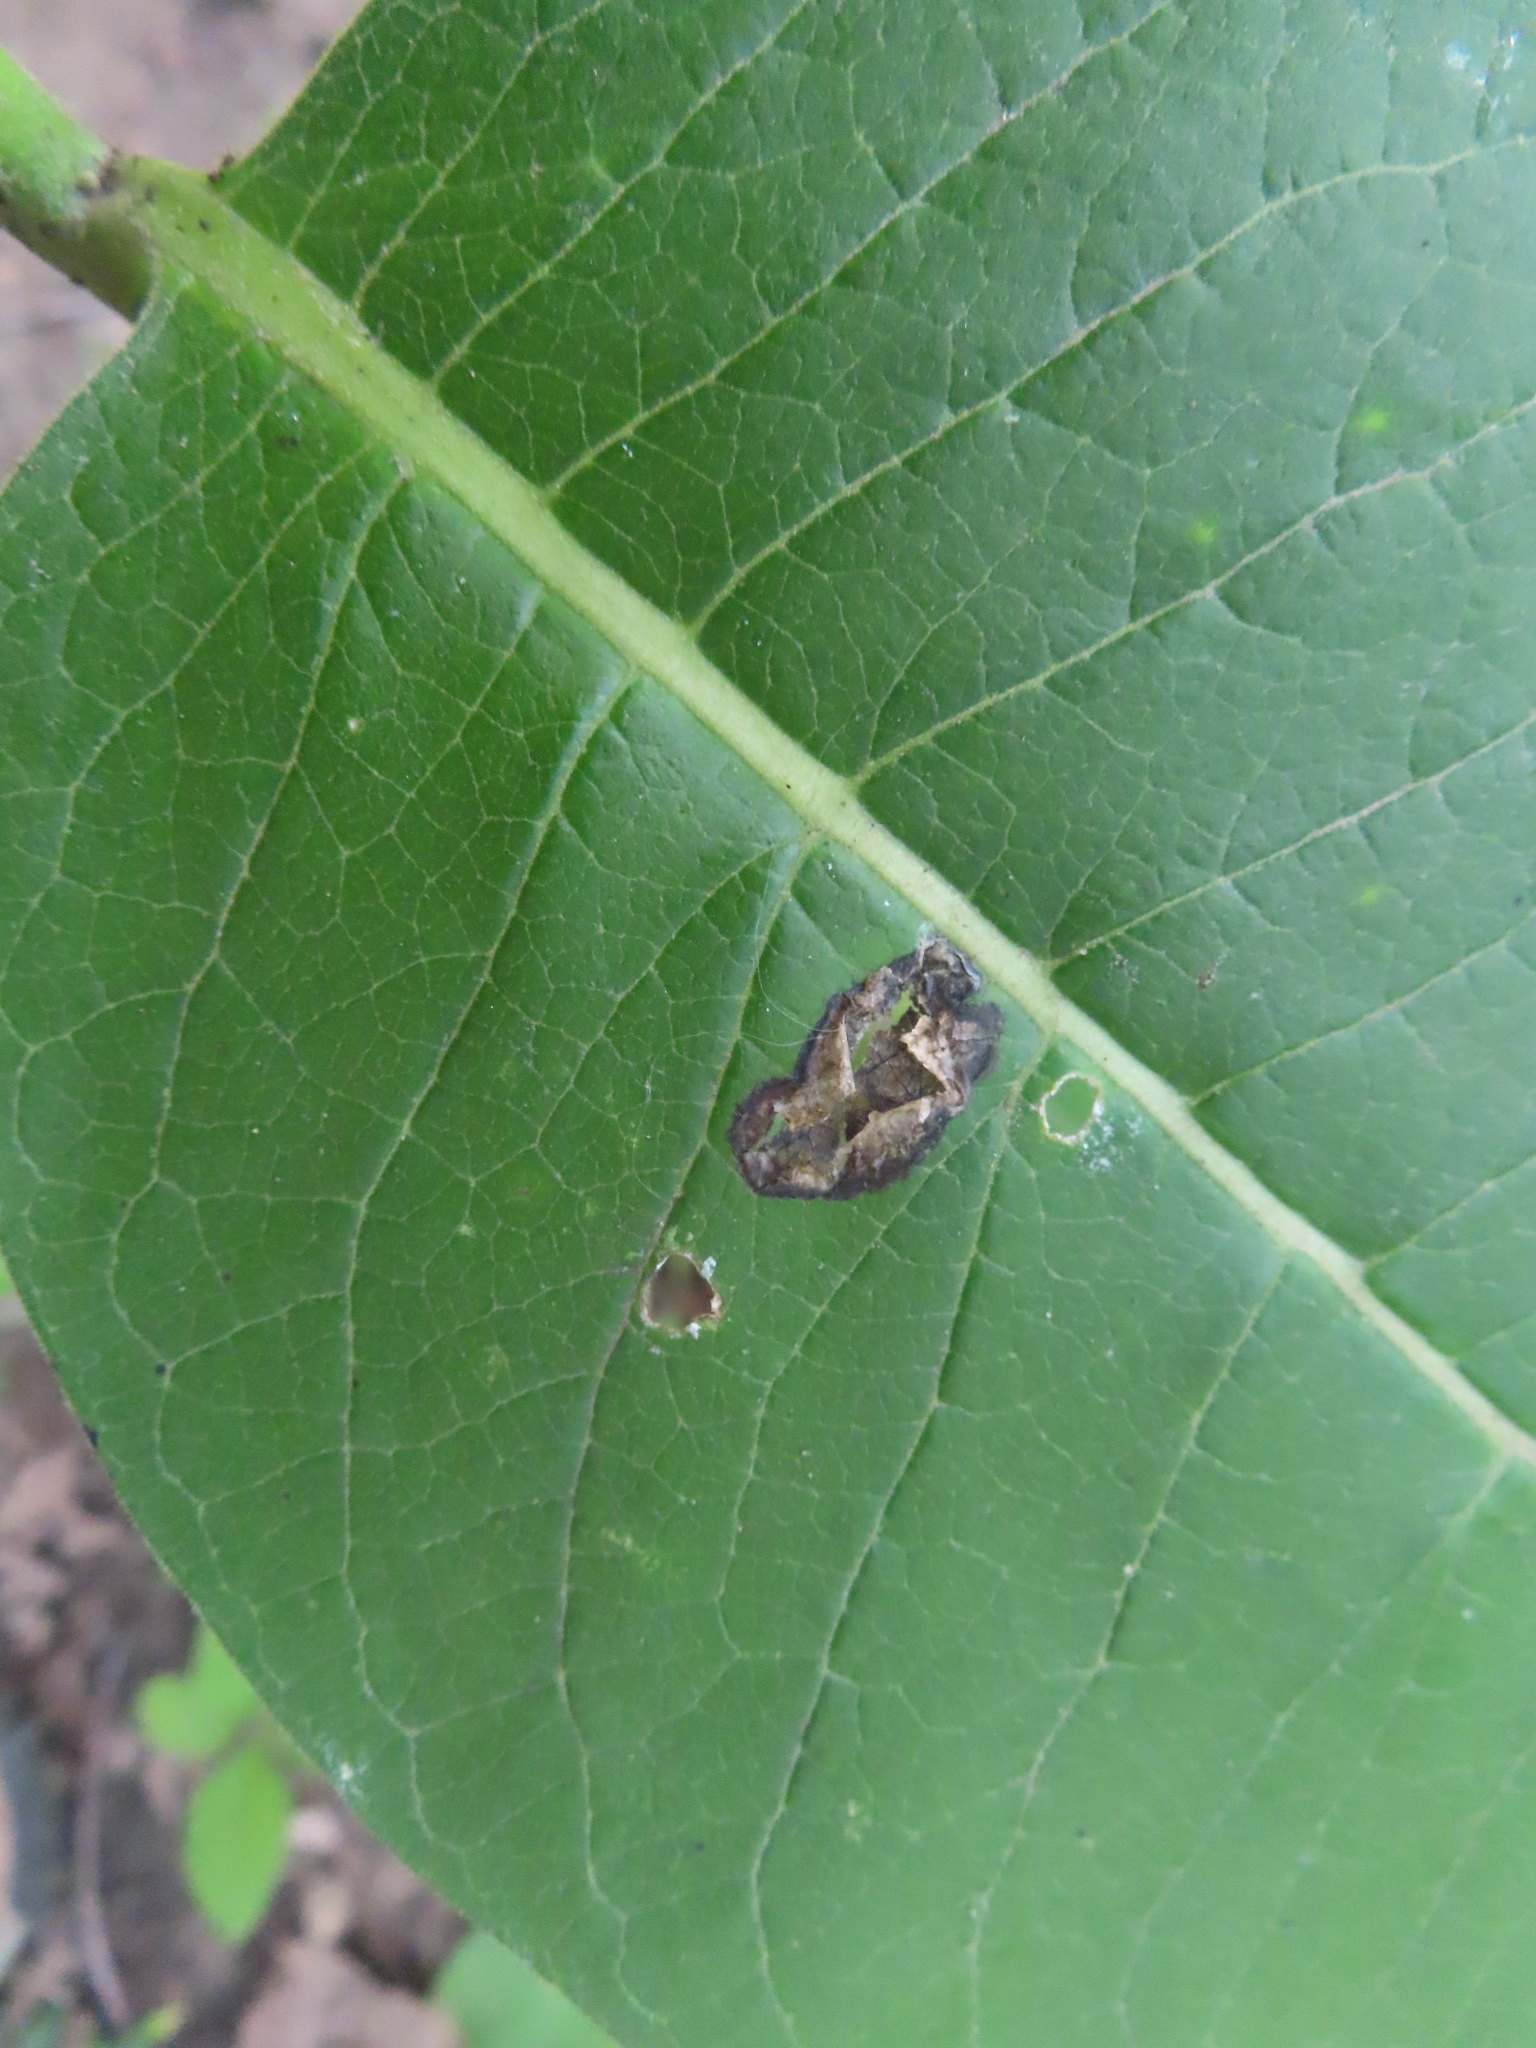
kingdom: Animalia
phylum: Arthropoda
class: Insecta
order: Diptera
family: Agromyzidae
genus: Liriomyza
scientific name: Liriomyza asclepiadis
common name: Milkweed leaf-miner fly
